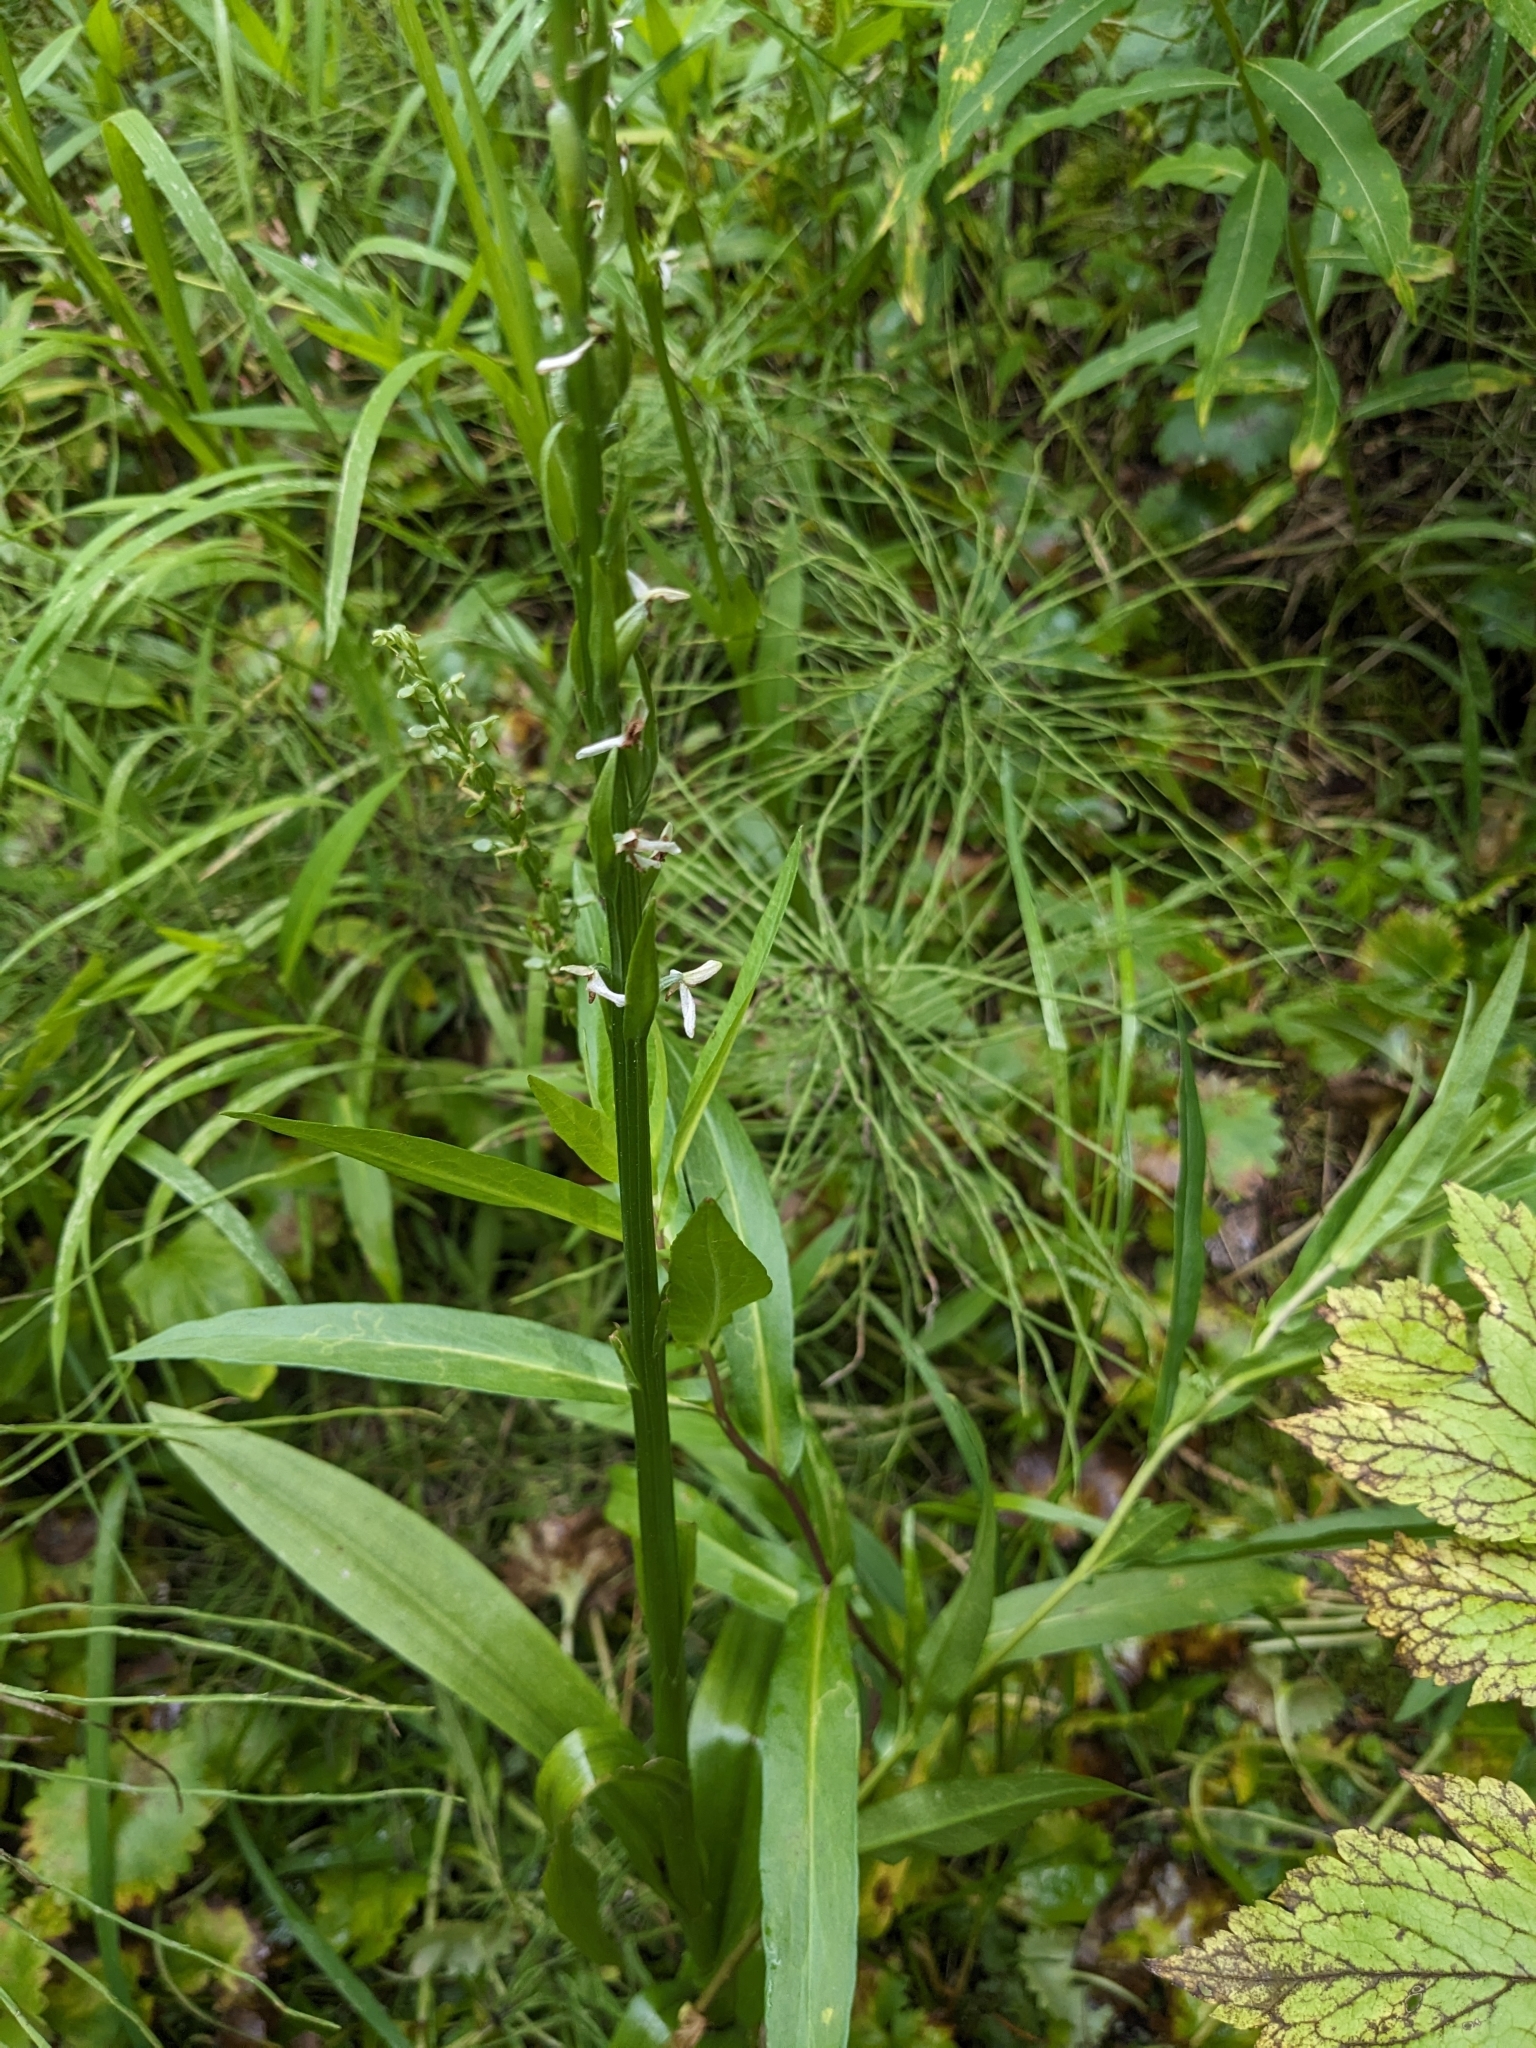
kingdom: Plantae
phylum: Tracheophyta
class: Liliopsida
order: Asparagales
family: Orchidaceae
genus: Platanthera
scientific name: Platanthera dilatata
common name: Bog candles
